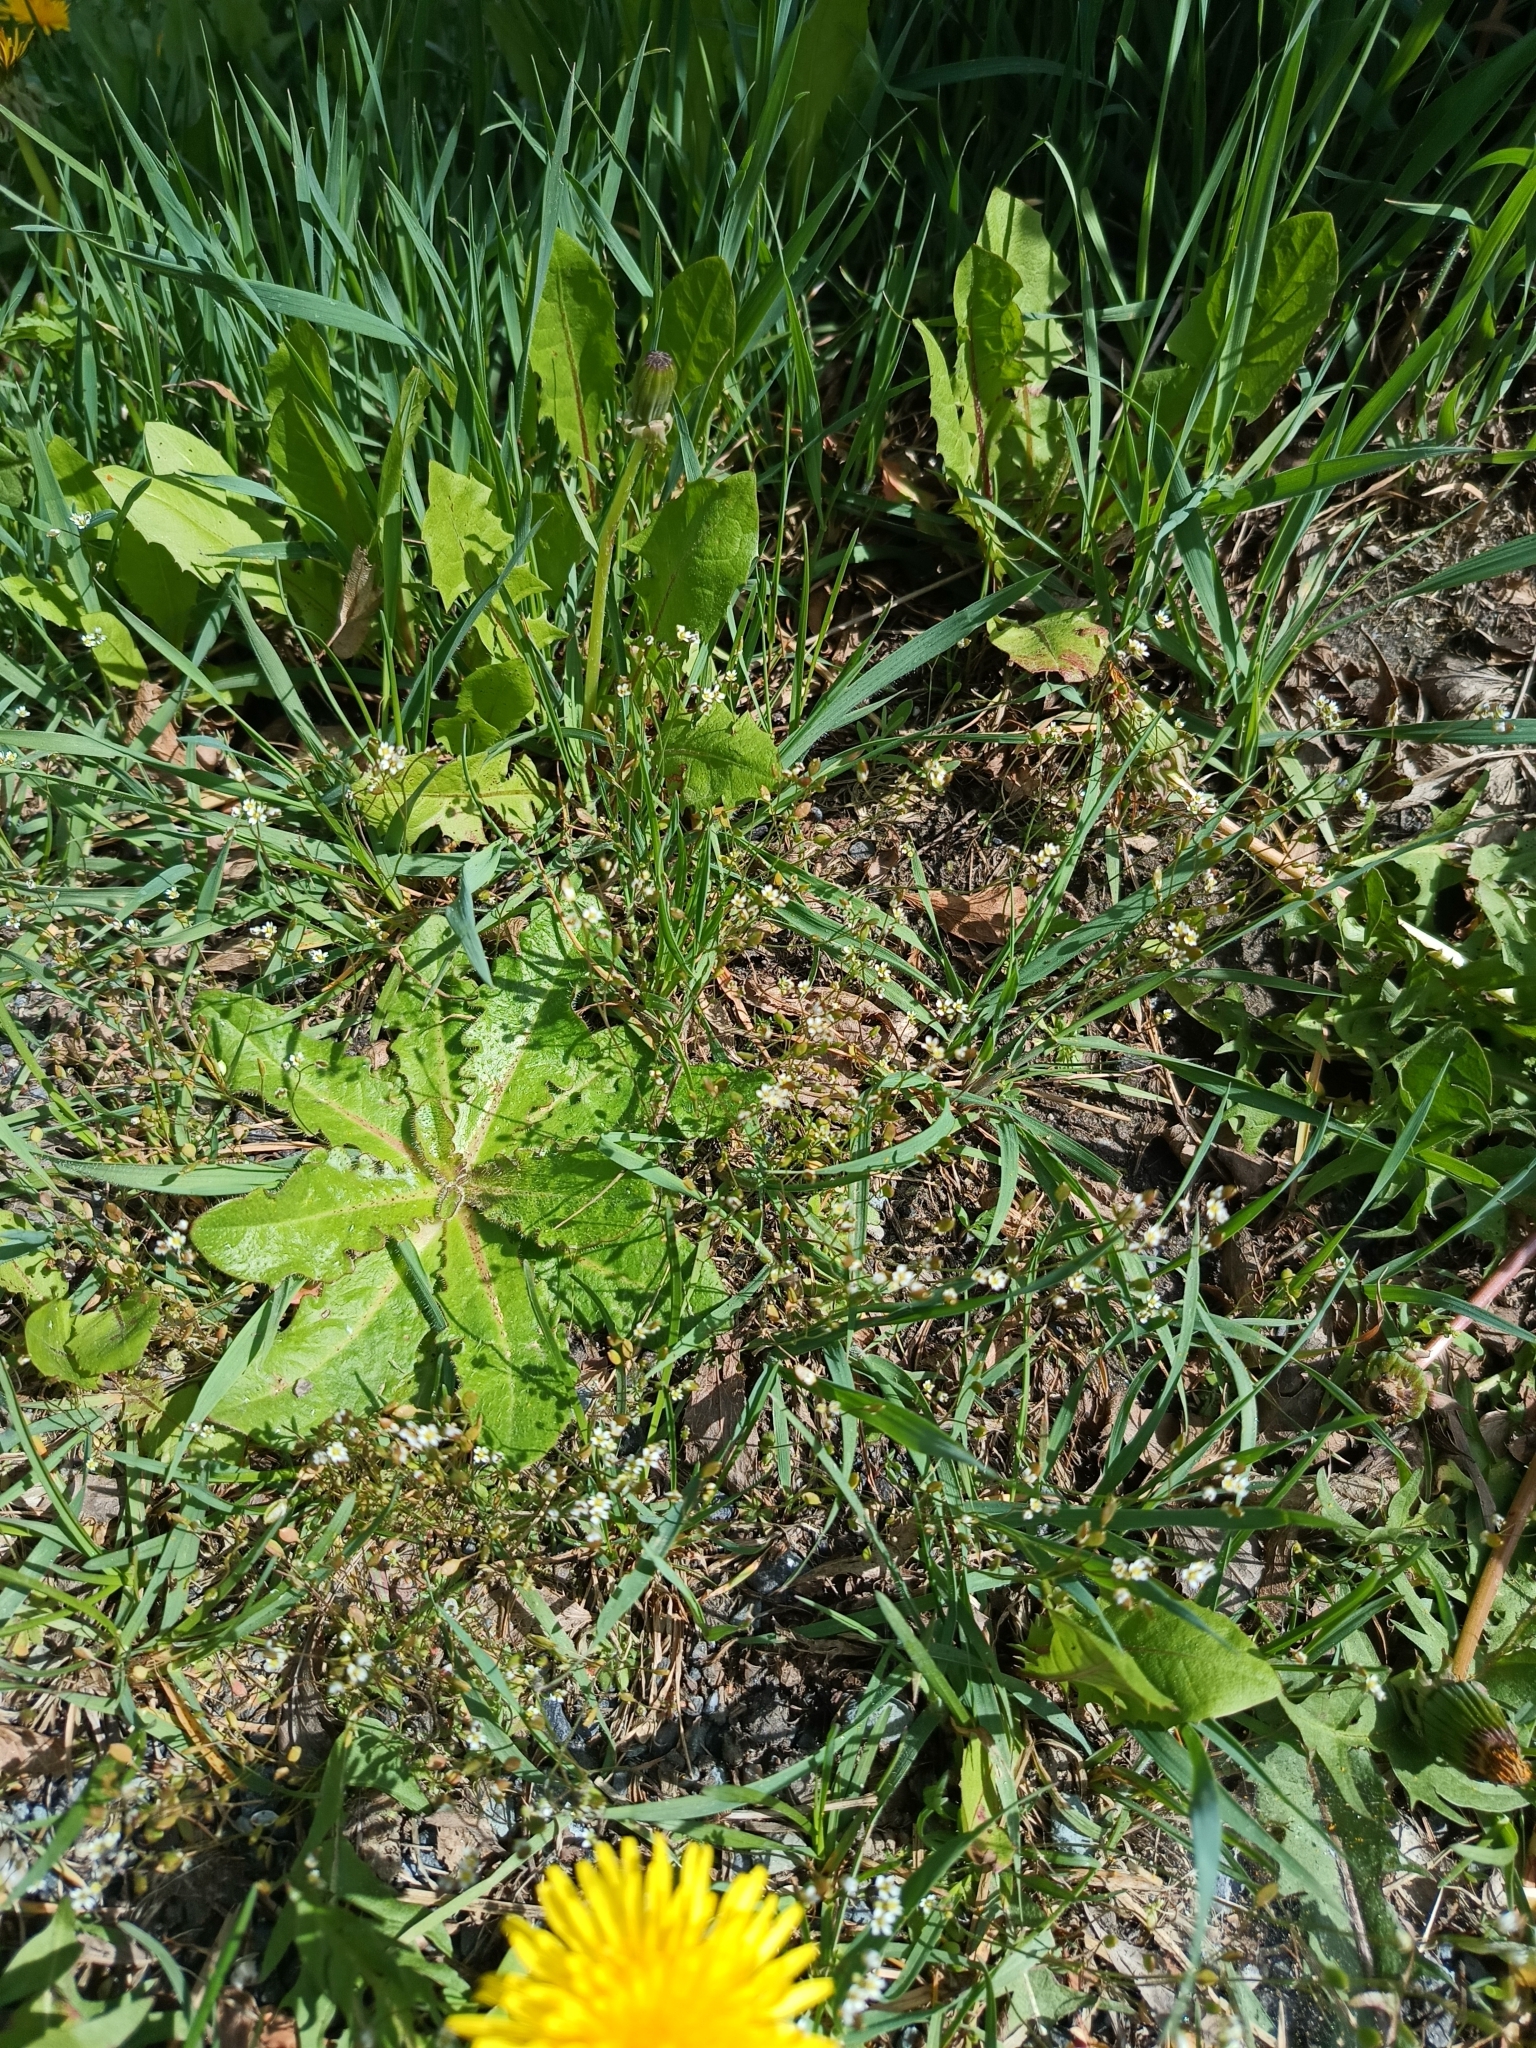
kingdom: Plantae
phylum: Tracheophyta
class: Magnoliopsida
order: Brassicales
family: Brassicaceae
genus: Draba
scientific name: Draba verna
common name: Spring draba
